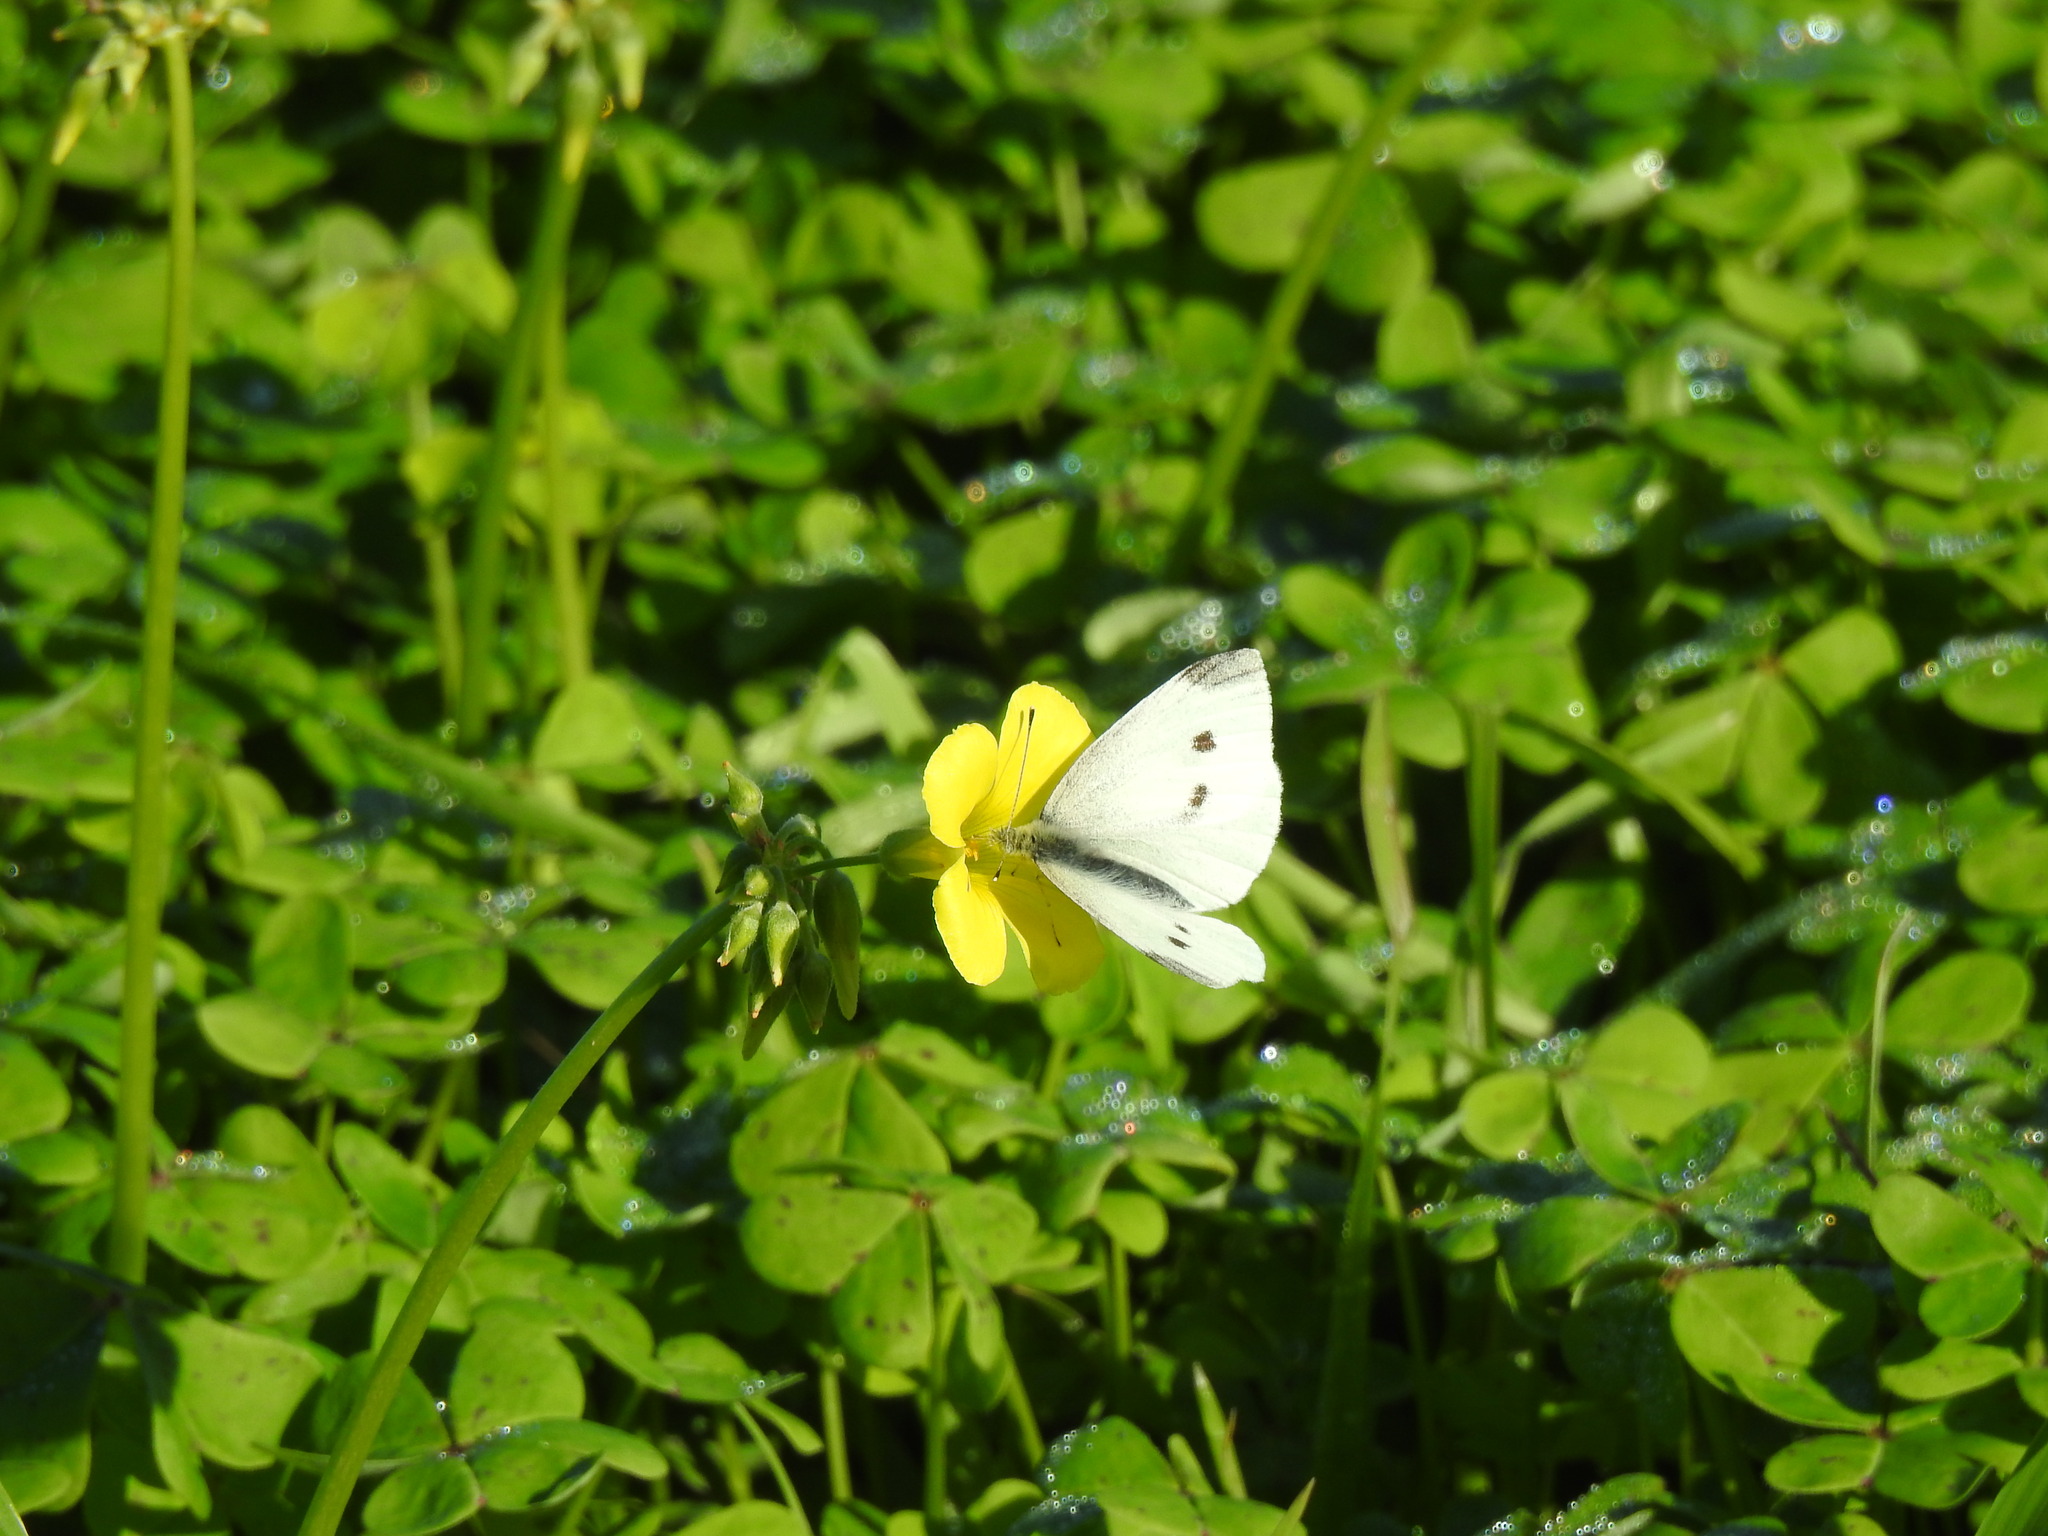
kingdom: Animalia
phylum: Arthropoda
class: Insecta
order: Lepidoptera
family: Pieridae
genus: Pieris
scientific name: Pieris rapae
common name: Small white
